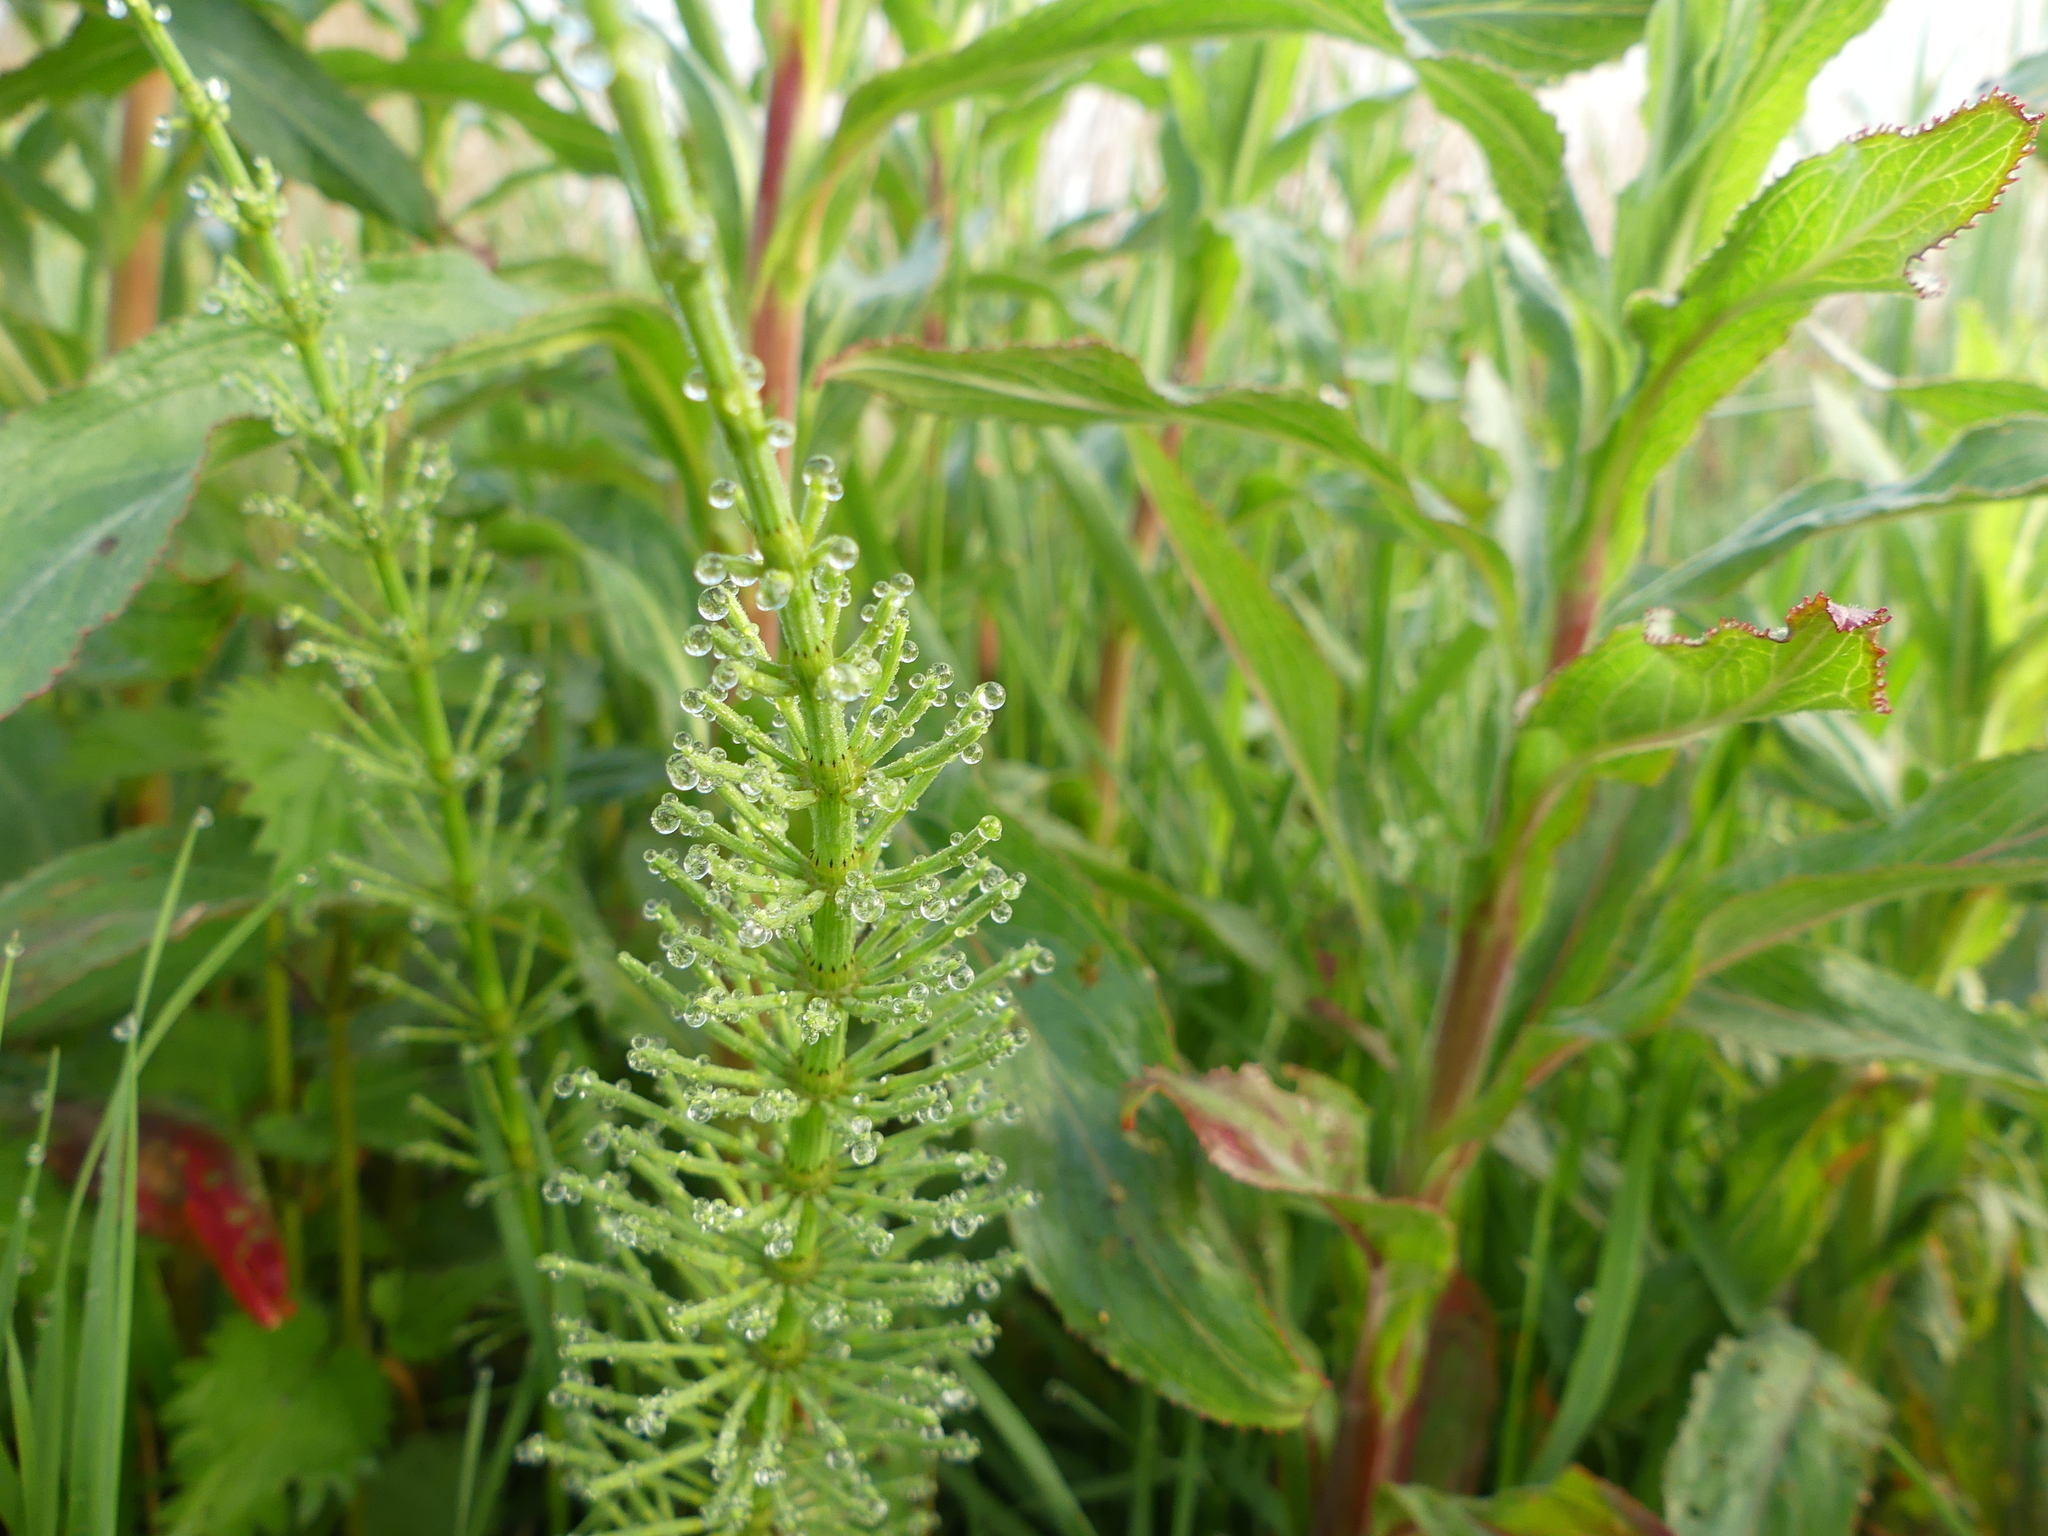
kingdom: Plantae
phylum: Tracheophyta
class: Polypodiopsida
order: Equisetales
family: Equisetaceae
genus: Equisetum
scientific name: Equisetum arvense
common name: Field horsetail
